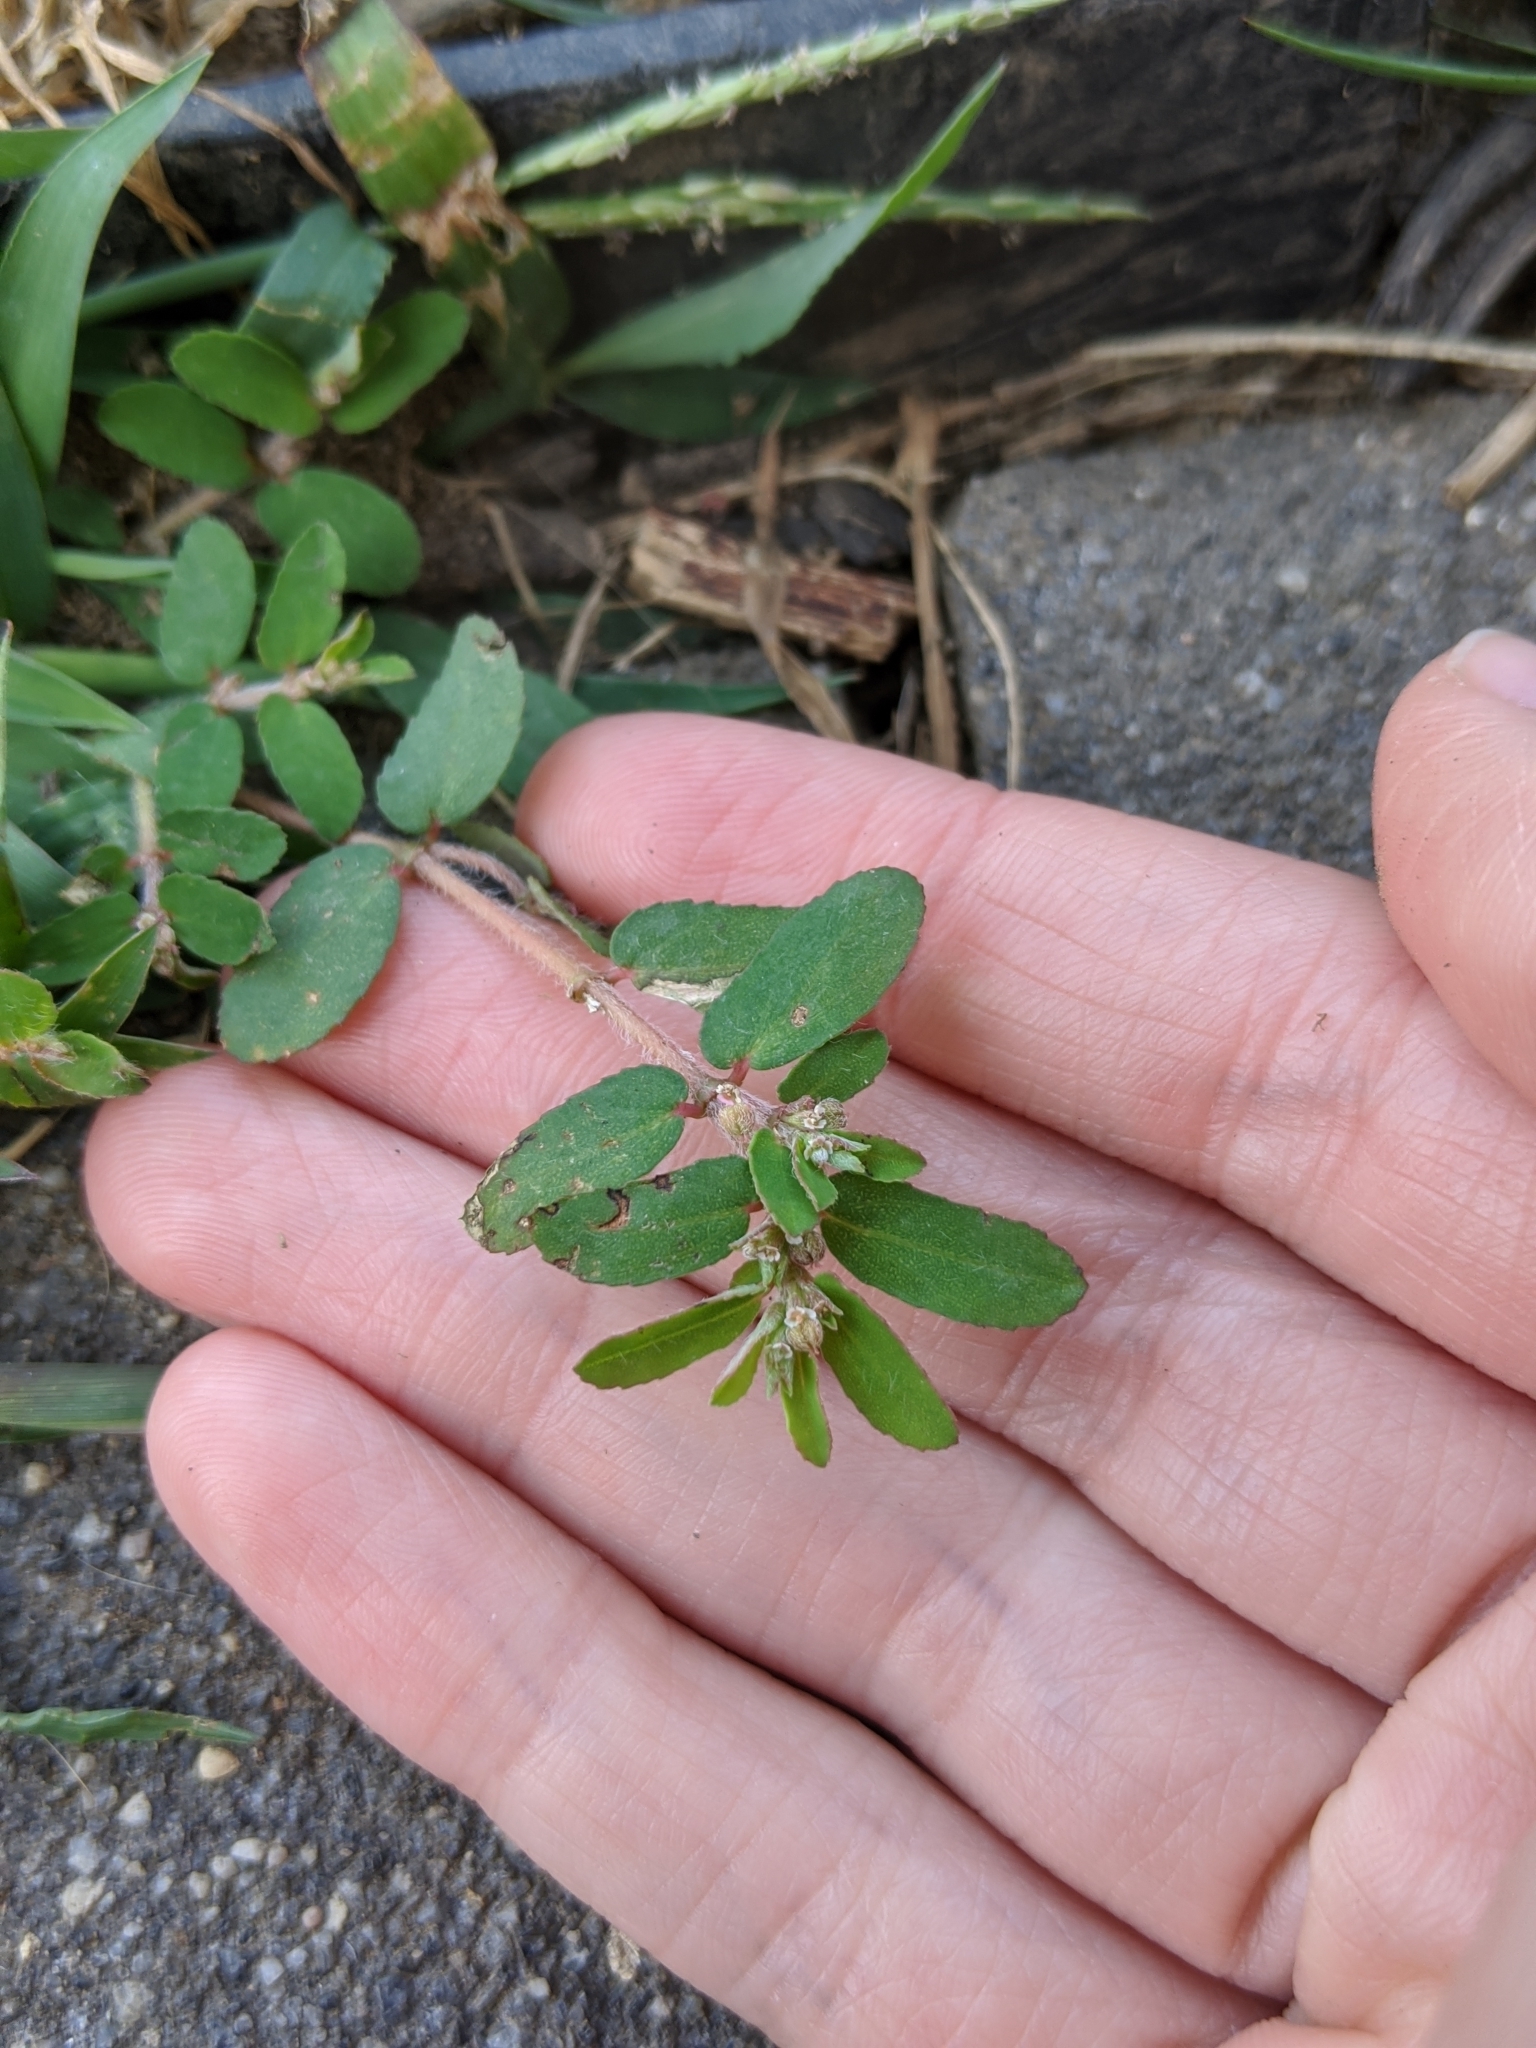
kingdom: Plantae
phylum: Tracheophyta
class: Magnoliopsida
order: Malpighiales
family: Euphorbiaceae
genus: Euphorbia
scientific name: Euphorbia maculata
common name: Spotted spurge
